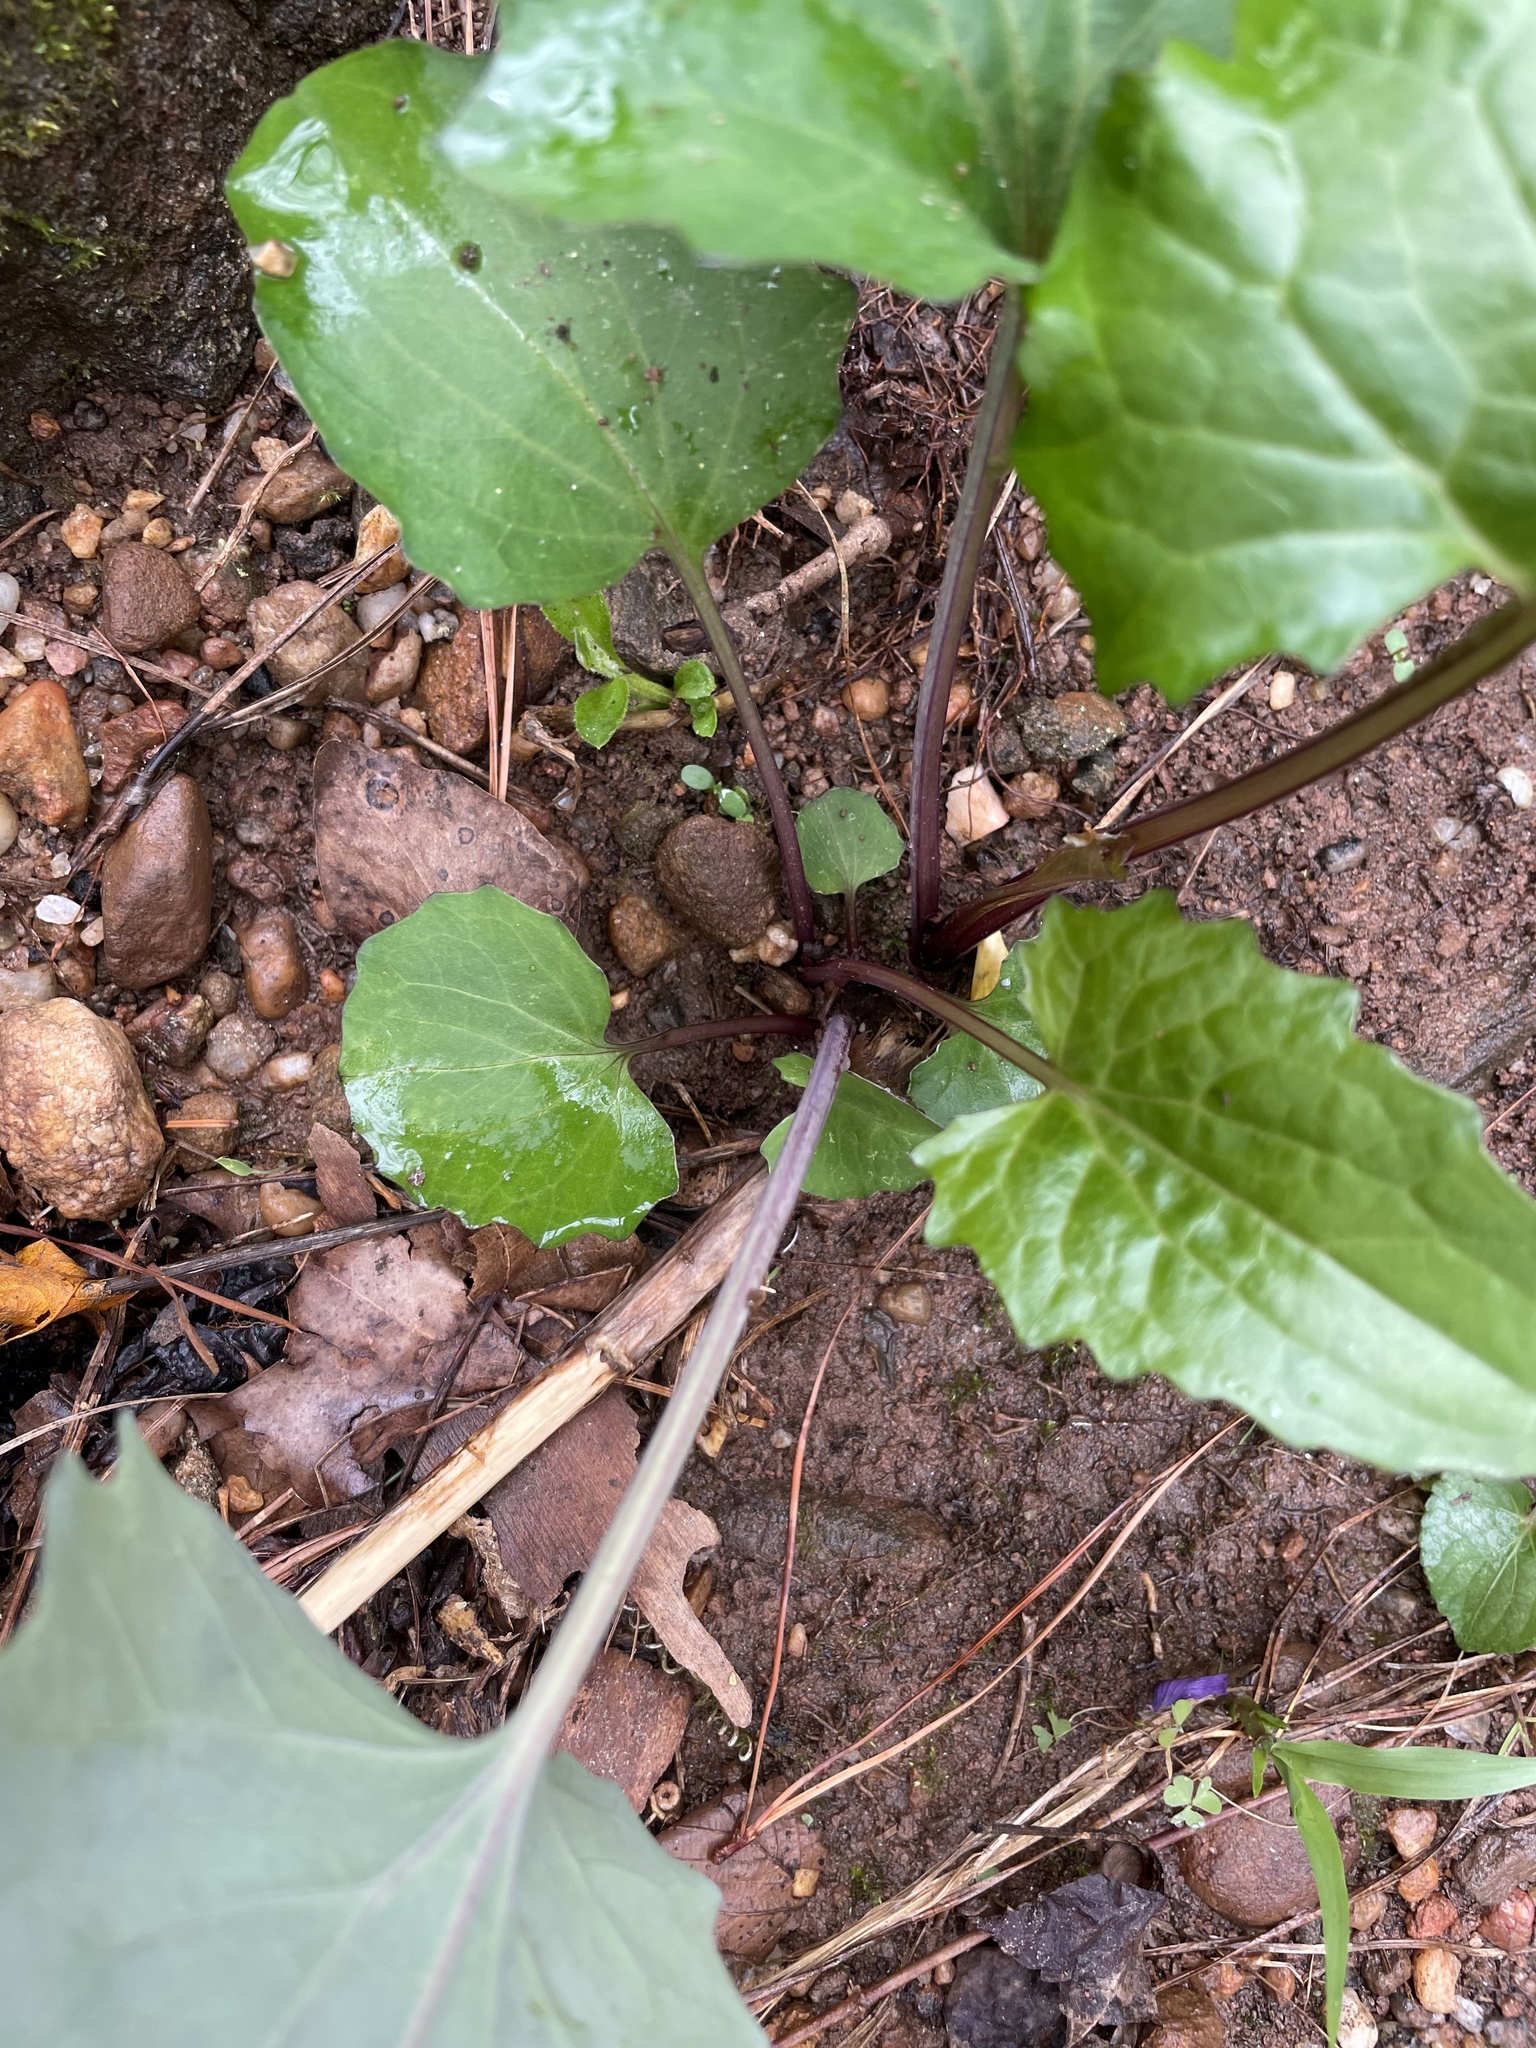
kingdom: Plantae
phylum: Tracheophyta
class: Magnoliopsida
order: Asterales
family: Asteraceae
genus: Arnoglossum
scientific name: Arnoglossum atriplicifolium
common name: Pale indian-plantain
